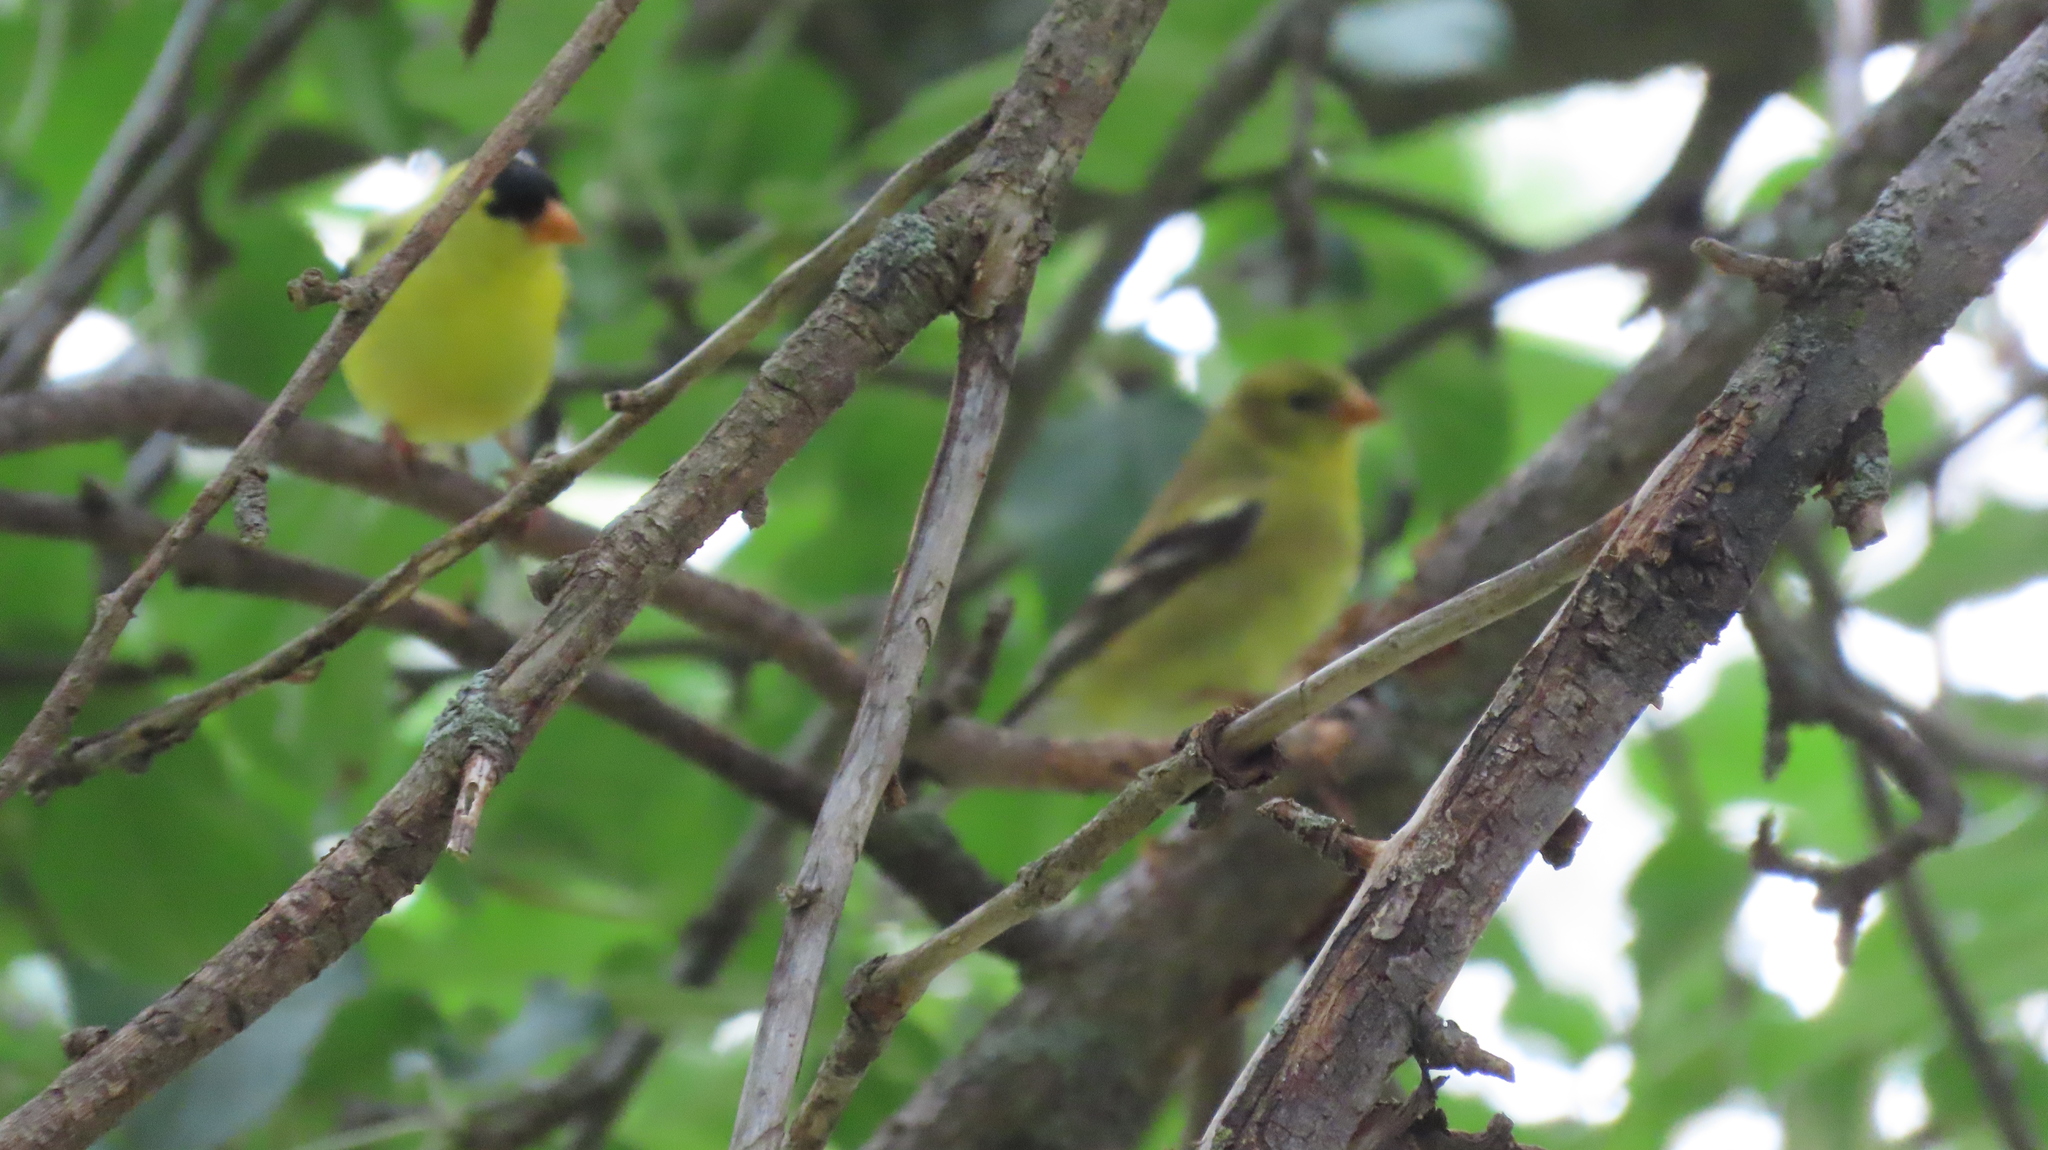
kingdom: Animalia
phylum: Chordata
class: Aves
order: Passeriformes
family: Fringillidae
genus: Spinus
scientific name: Spinus tristis
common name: American goldfinch
